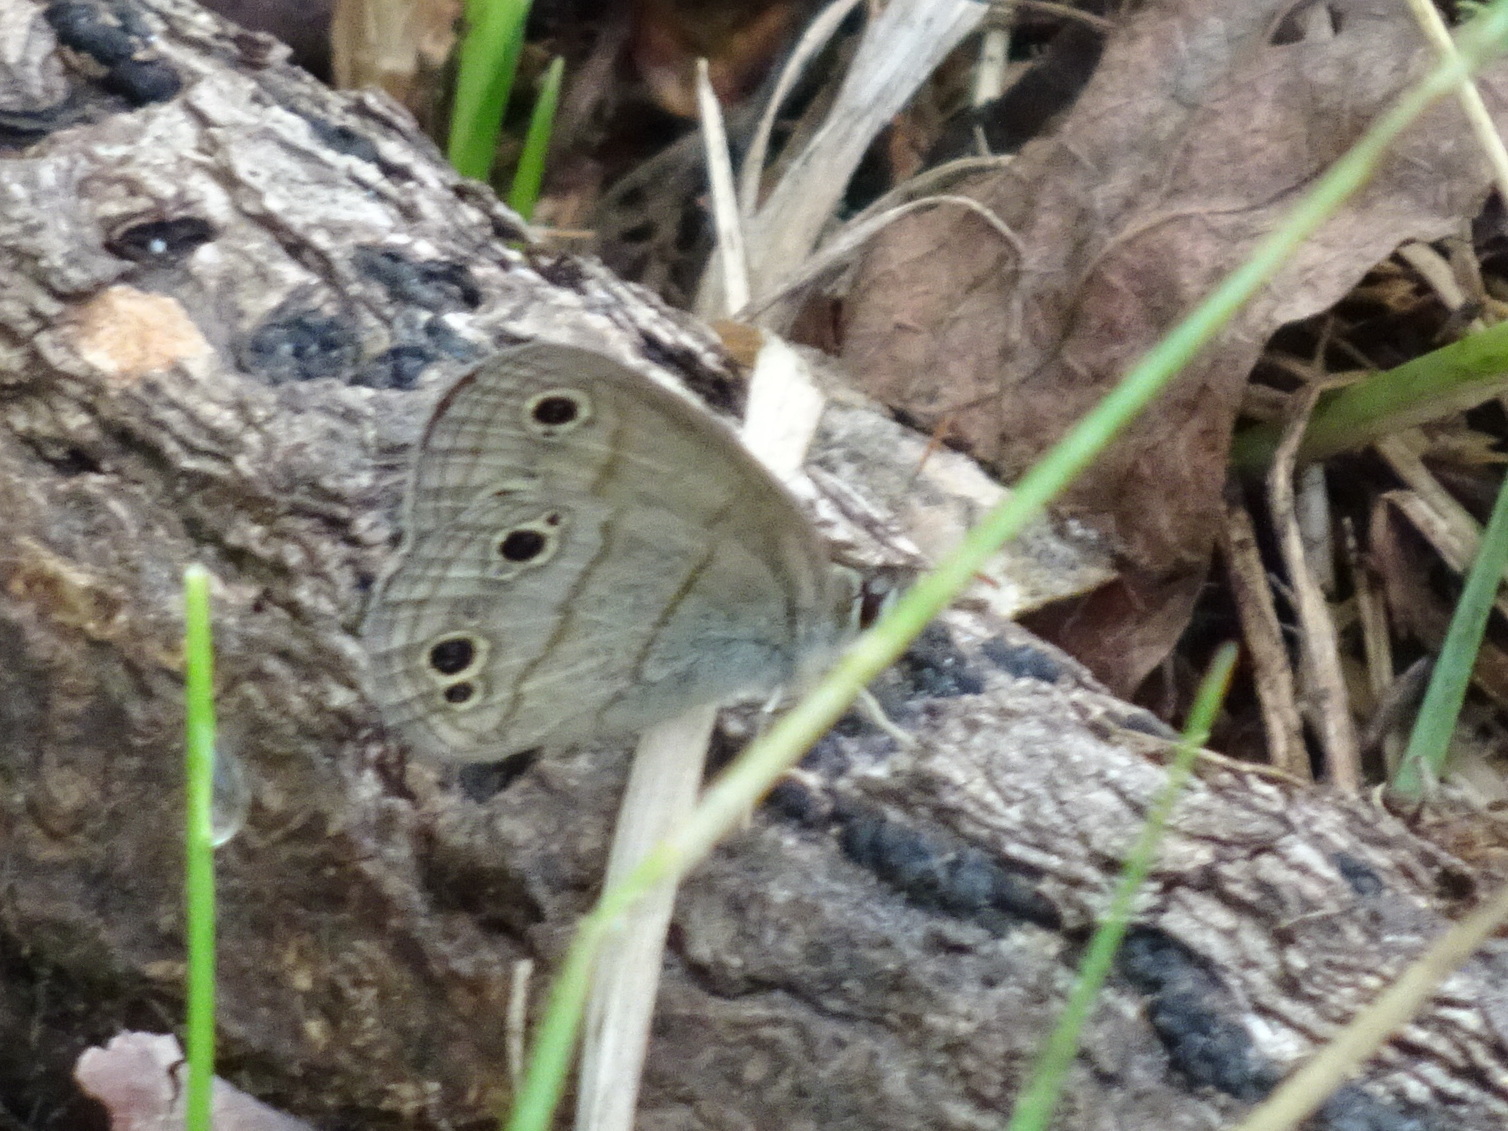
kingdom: Animalia
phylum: Arthropoda
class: Insecta
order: Lepidoptera
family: Nymphalidae
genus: Euptychia
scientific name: Euptychia cymela
